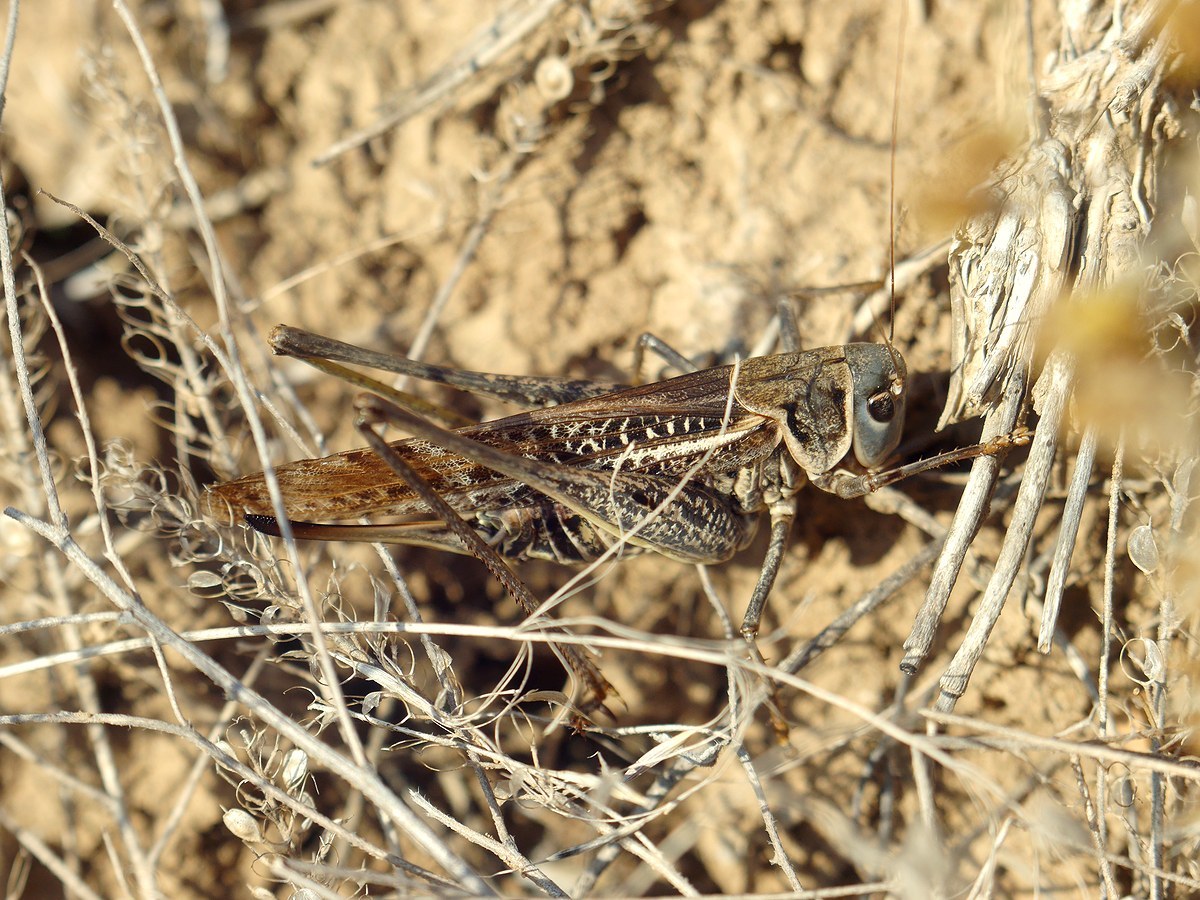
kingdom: Animalia
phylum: Arthropoda
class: Insecta
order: Orthoptera
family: Tettigoniidae
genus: Decticus
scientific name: Decticus albifrons
